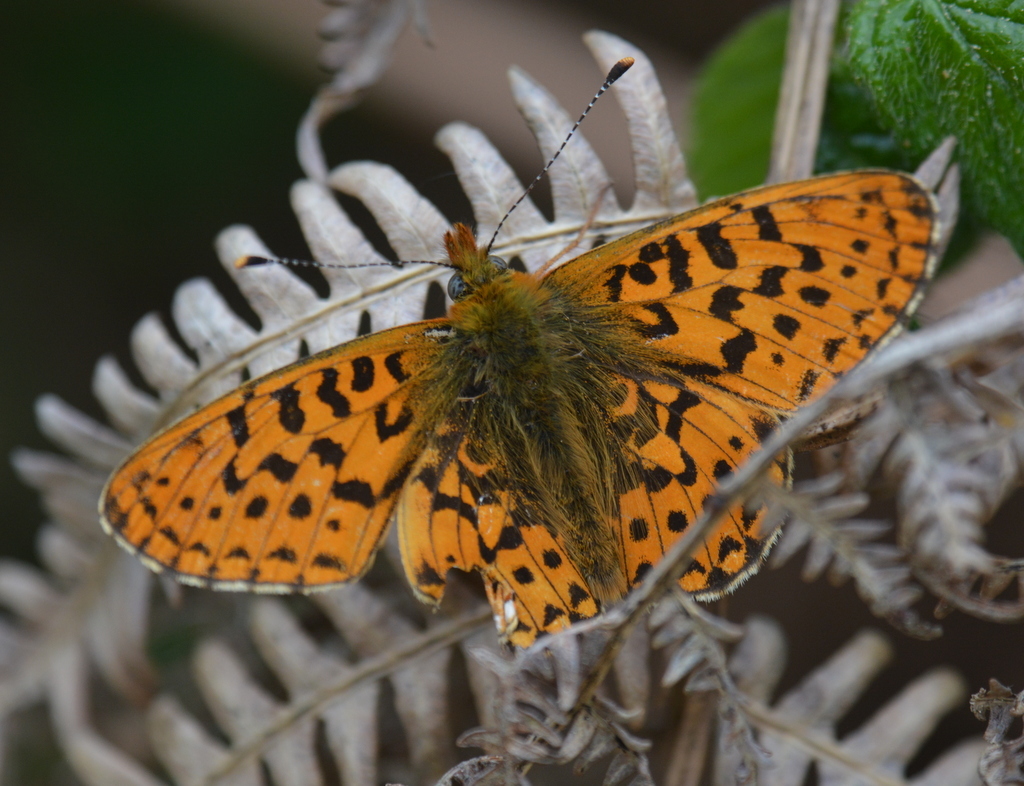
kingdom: Animalia
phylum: Arthropoda
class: Insecta
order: Lepidoptera
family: Nymphalidae
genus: Clossiana
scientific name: Clossiana euphrosyne
